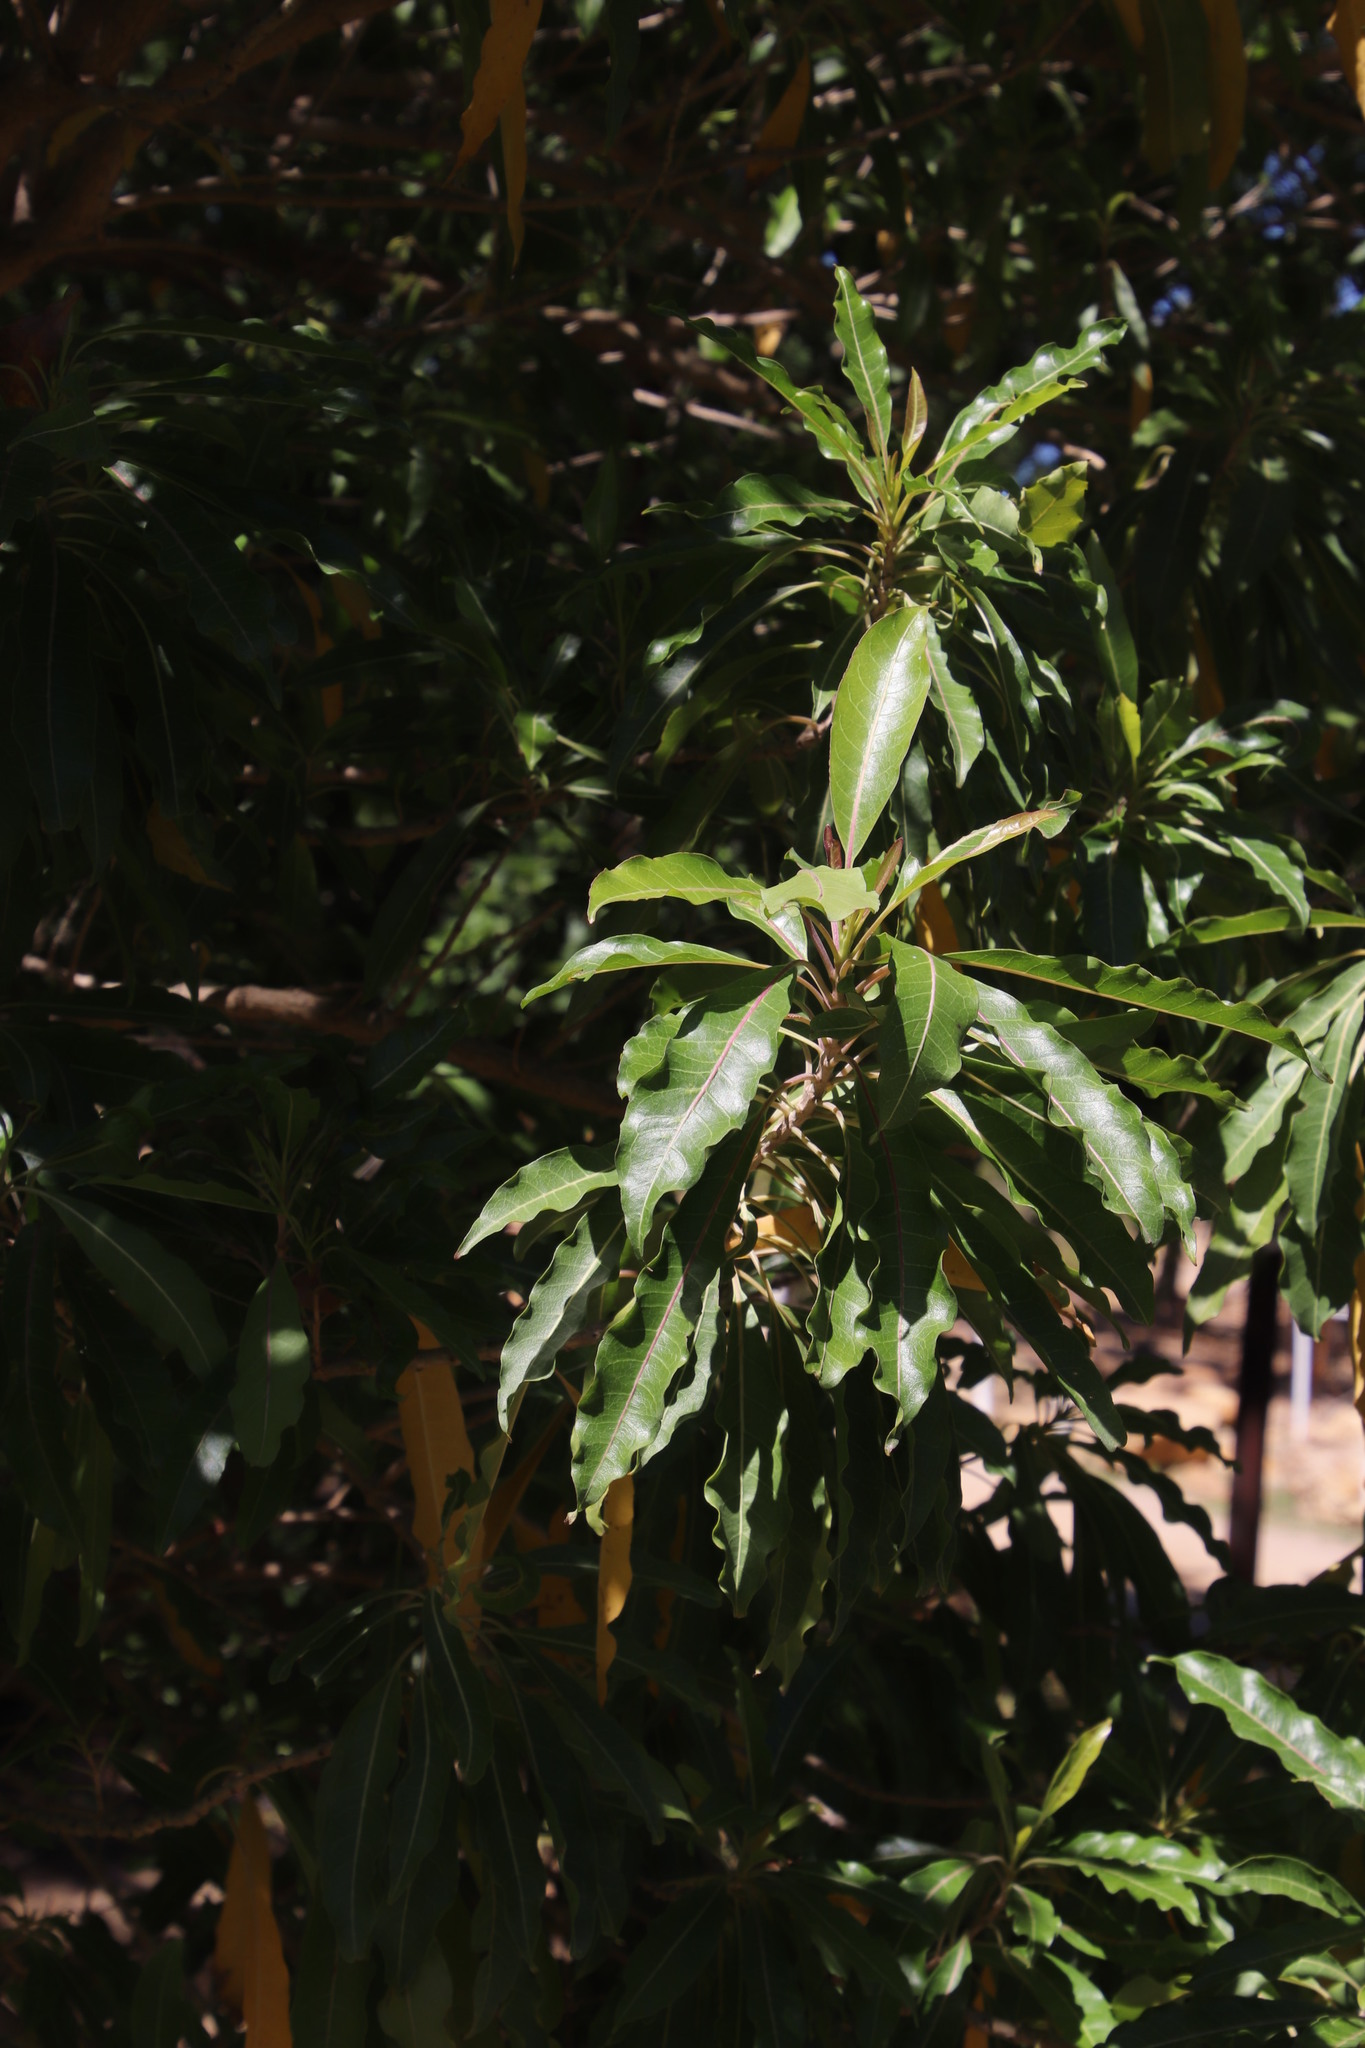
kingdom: Plantae
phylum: Tracheophyta
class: Magnoliopsida
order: Lamiales
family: Stilbaceae
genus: Nuxia
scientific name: Nuxia floribunda
